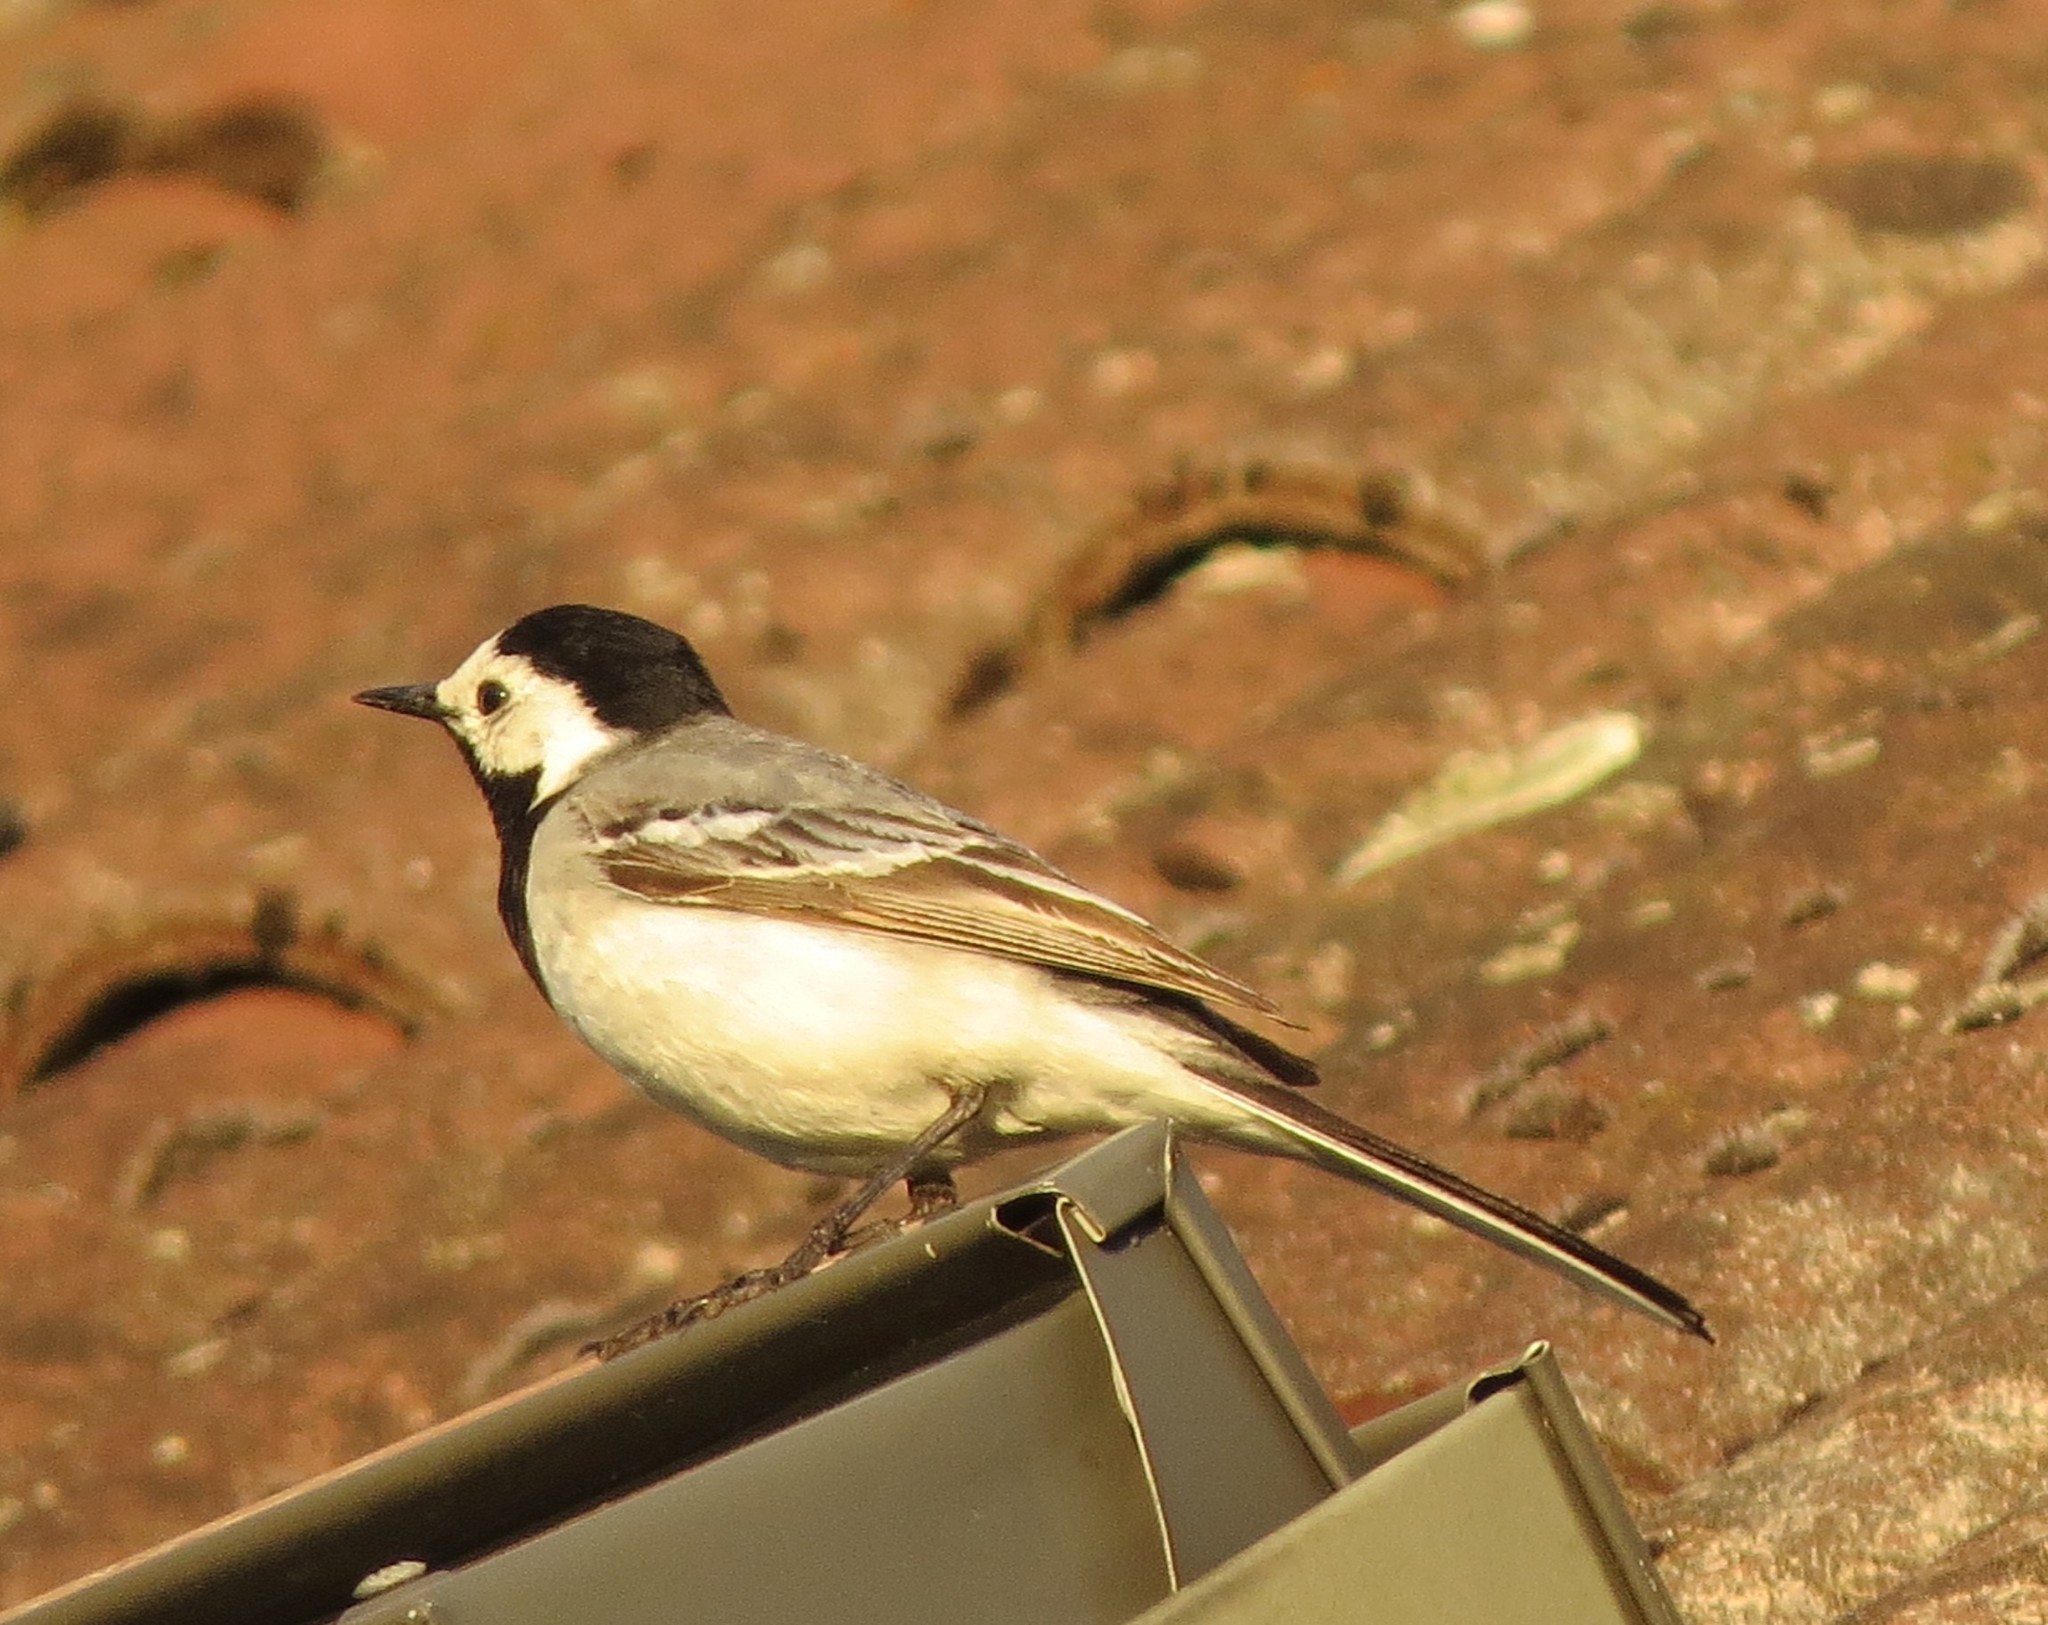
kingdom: Animalia
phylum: Chordata
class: Aves
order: Passeriformes
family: Motacillidae
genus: Motacilla
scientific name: Motacilla alba
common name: White wagtail
